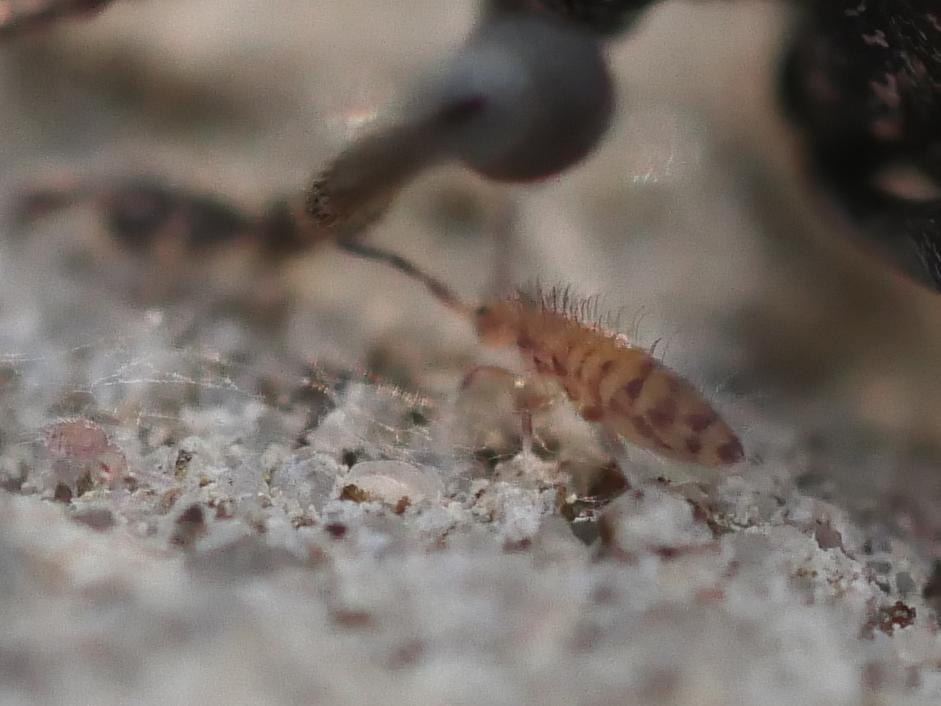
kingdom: Animalia
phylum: Arthropoda
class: Collembola
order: Entomobryomorpha
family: Entomobryidae
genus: Entomobrya
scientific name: Entomobrya multifasciata
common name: Springtail
